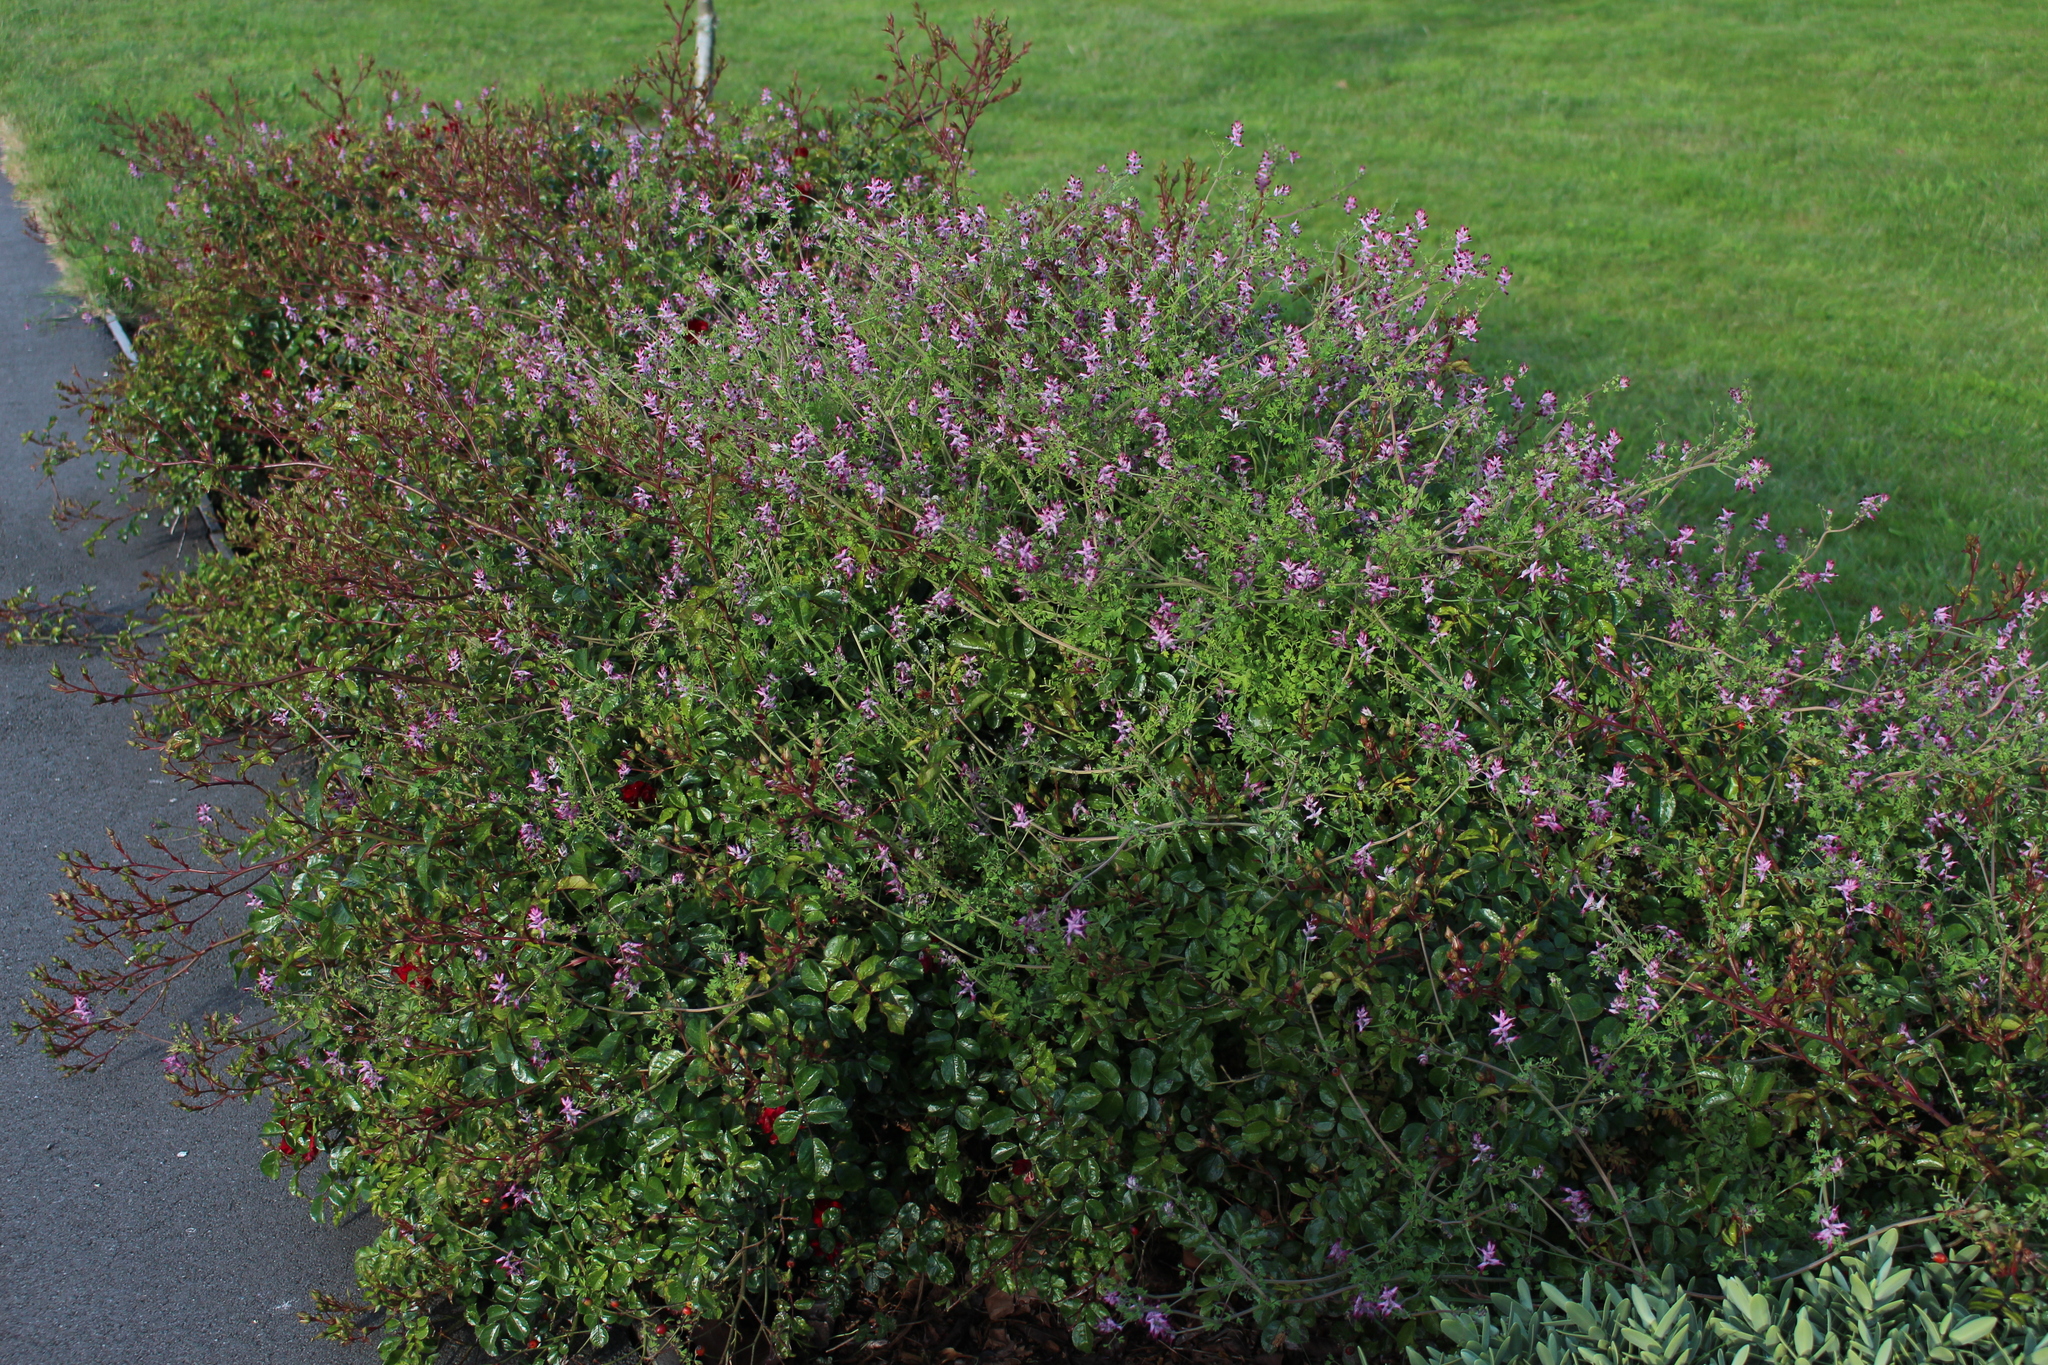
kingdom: Plantae
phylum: Tracheophyta
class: Magnoliopsida
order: Ranunculales
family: Papaveraceae
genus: Fumaria
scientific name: Fumaria muralis
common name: Common ramping-fumitory
